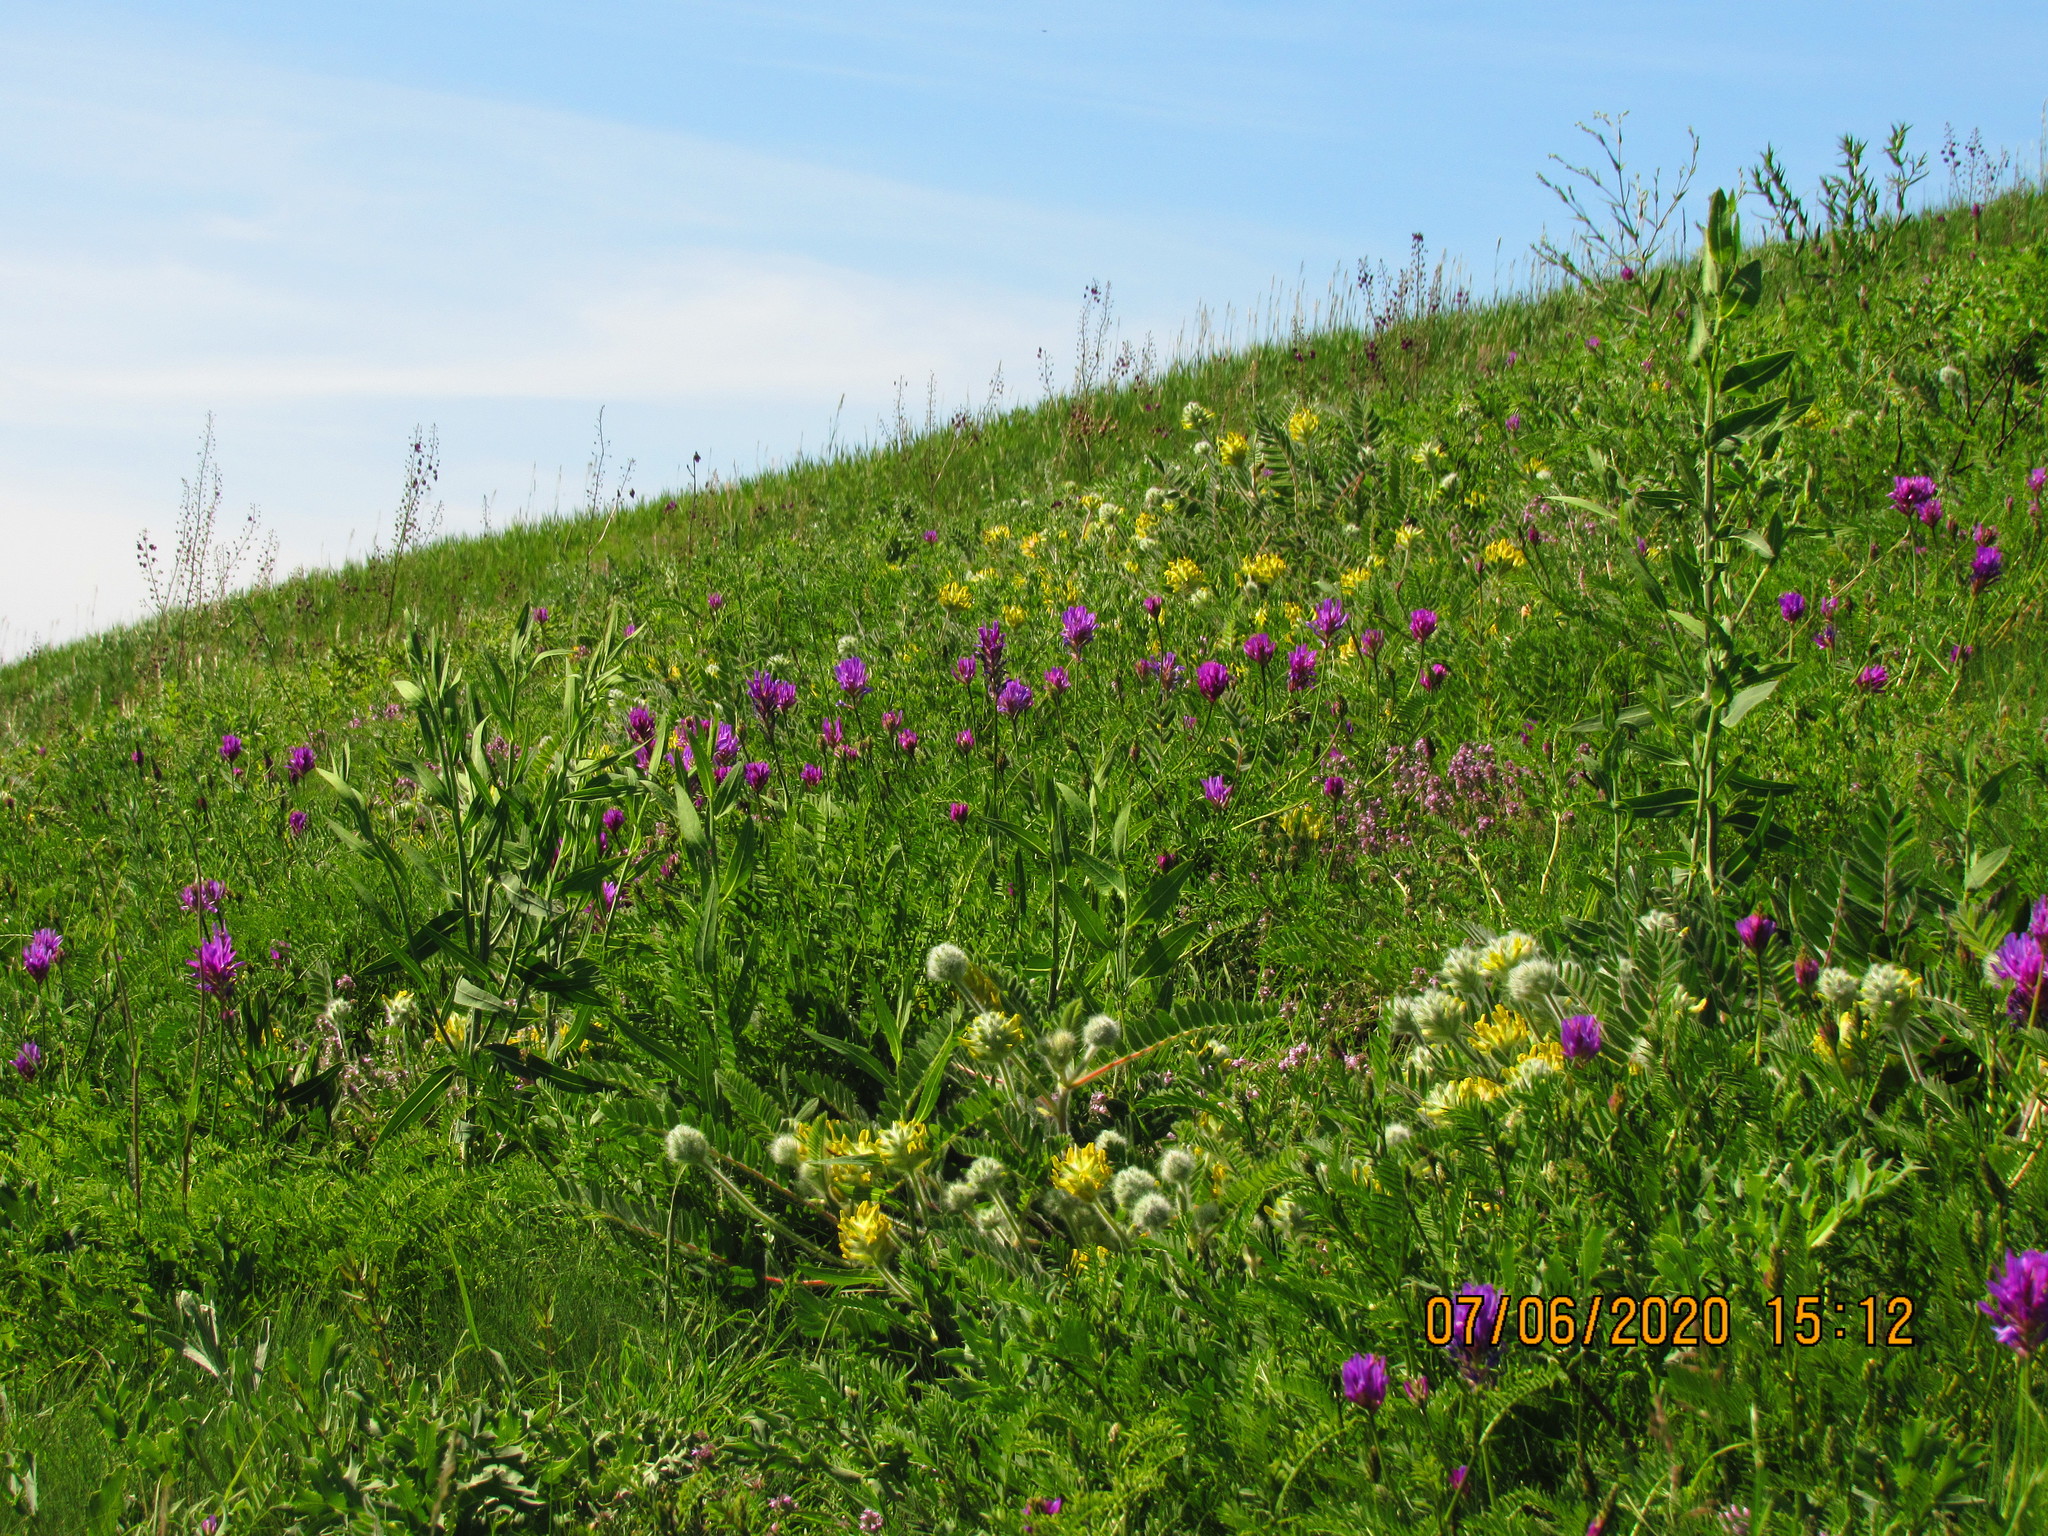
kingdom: Plantae
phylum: Tracheophyta
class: Magnoliopsida
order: Fabales
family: Fabaceae
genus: Astragalus
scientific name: Astragalus onobrychis
